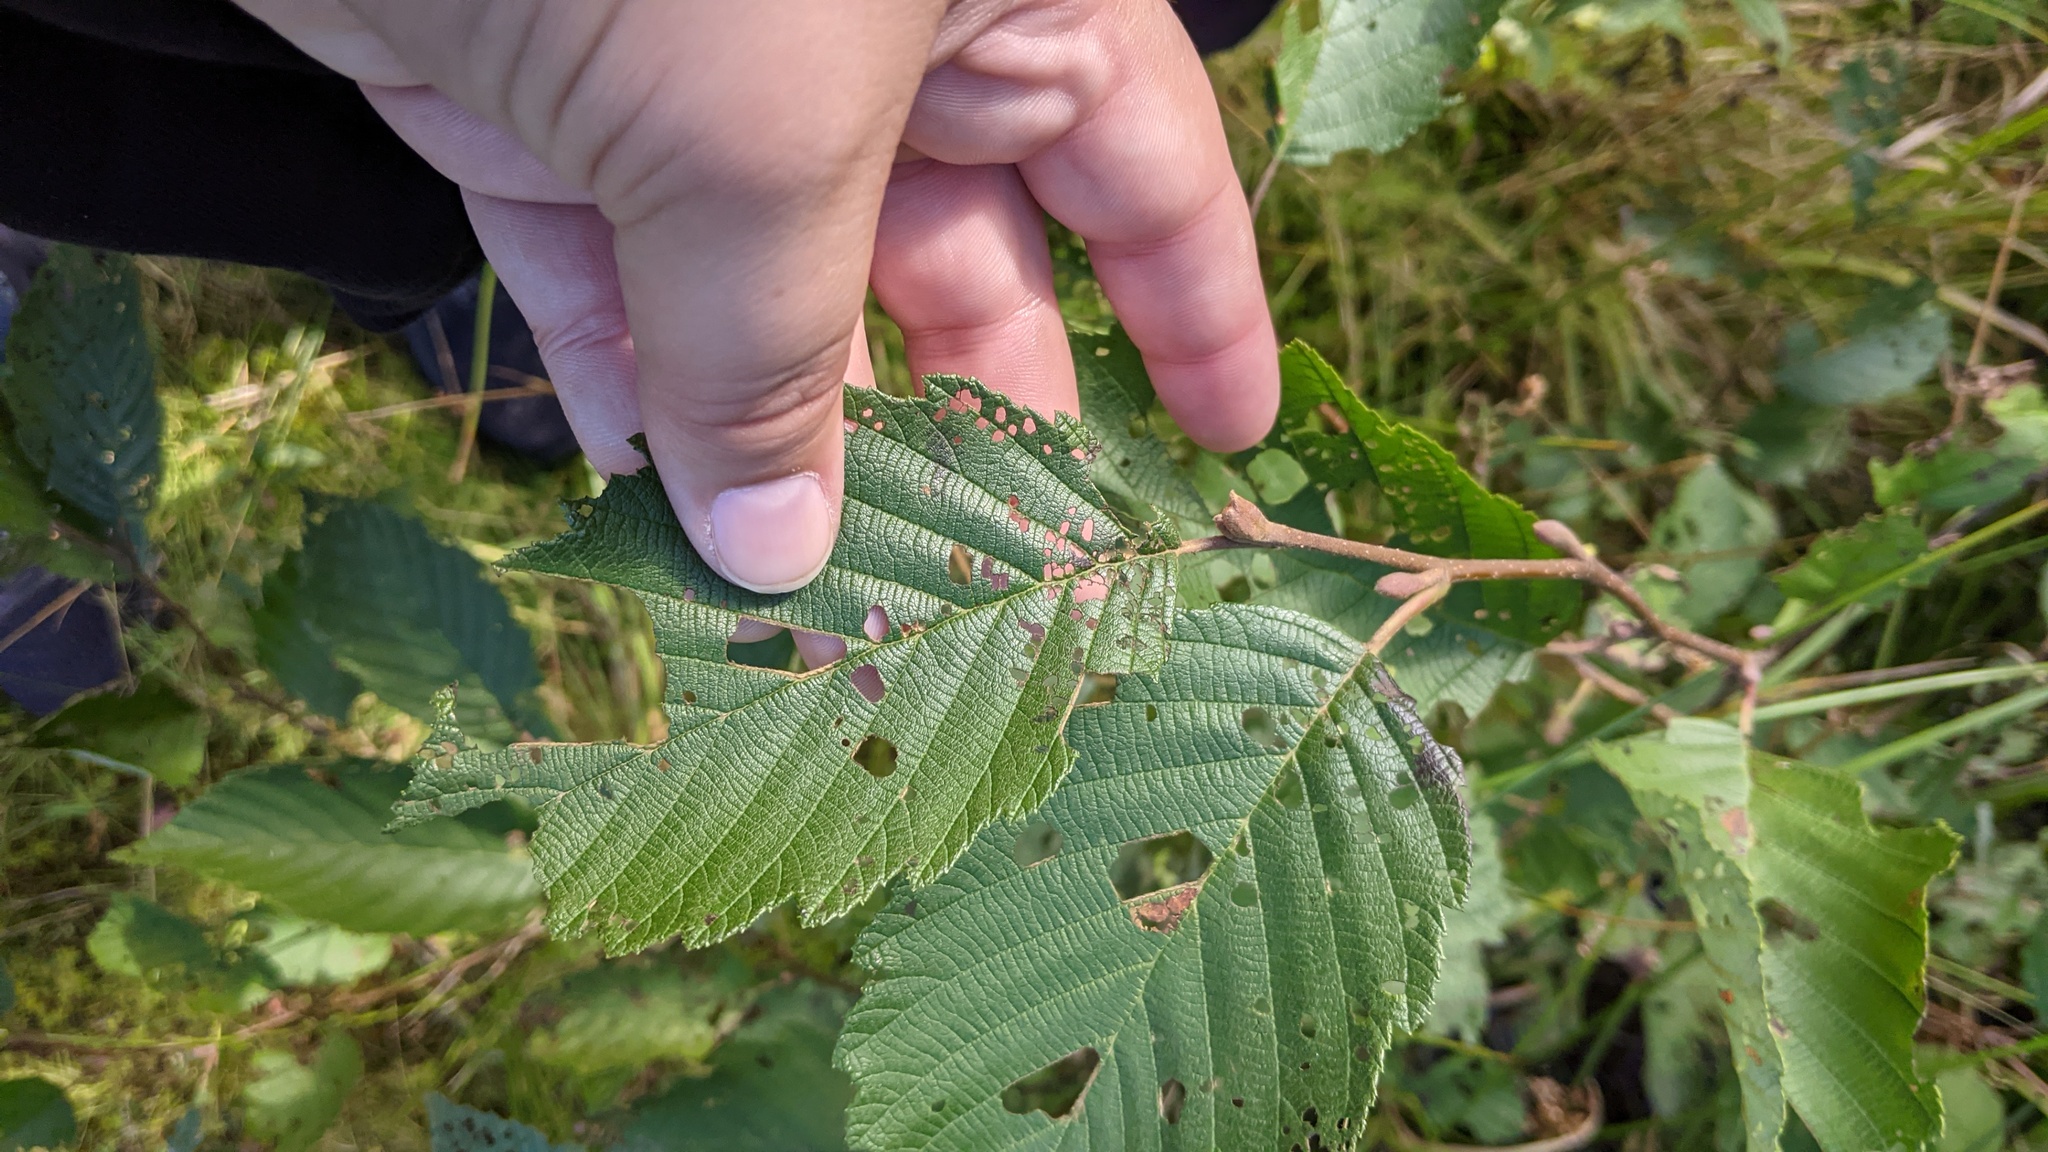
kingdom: Plantae
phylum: Tracheophyta
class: Magnoliopsida
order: Fagales
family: Betulaceae
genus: Alnus
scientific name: Alnus incana
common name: Grey alder
